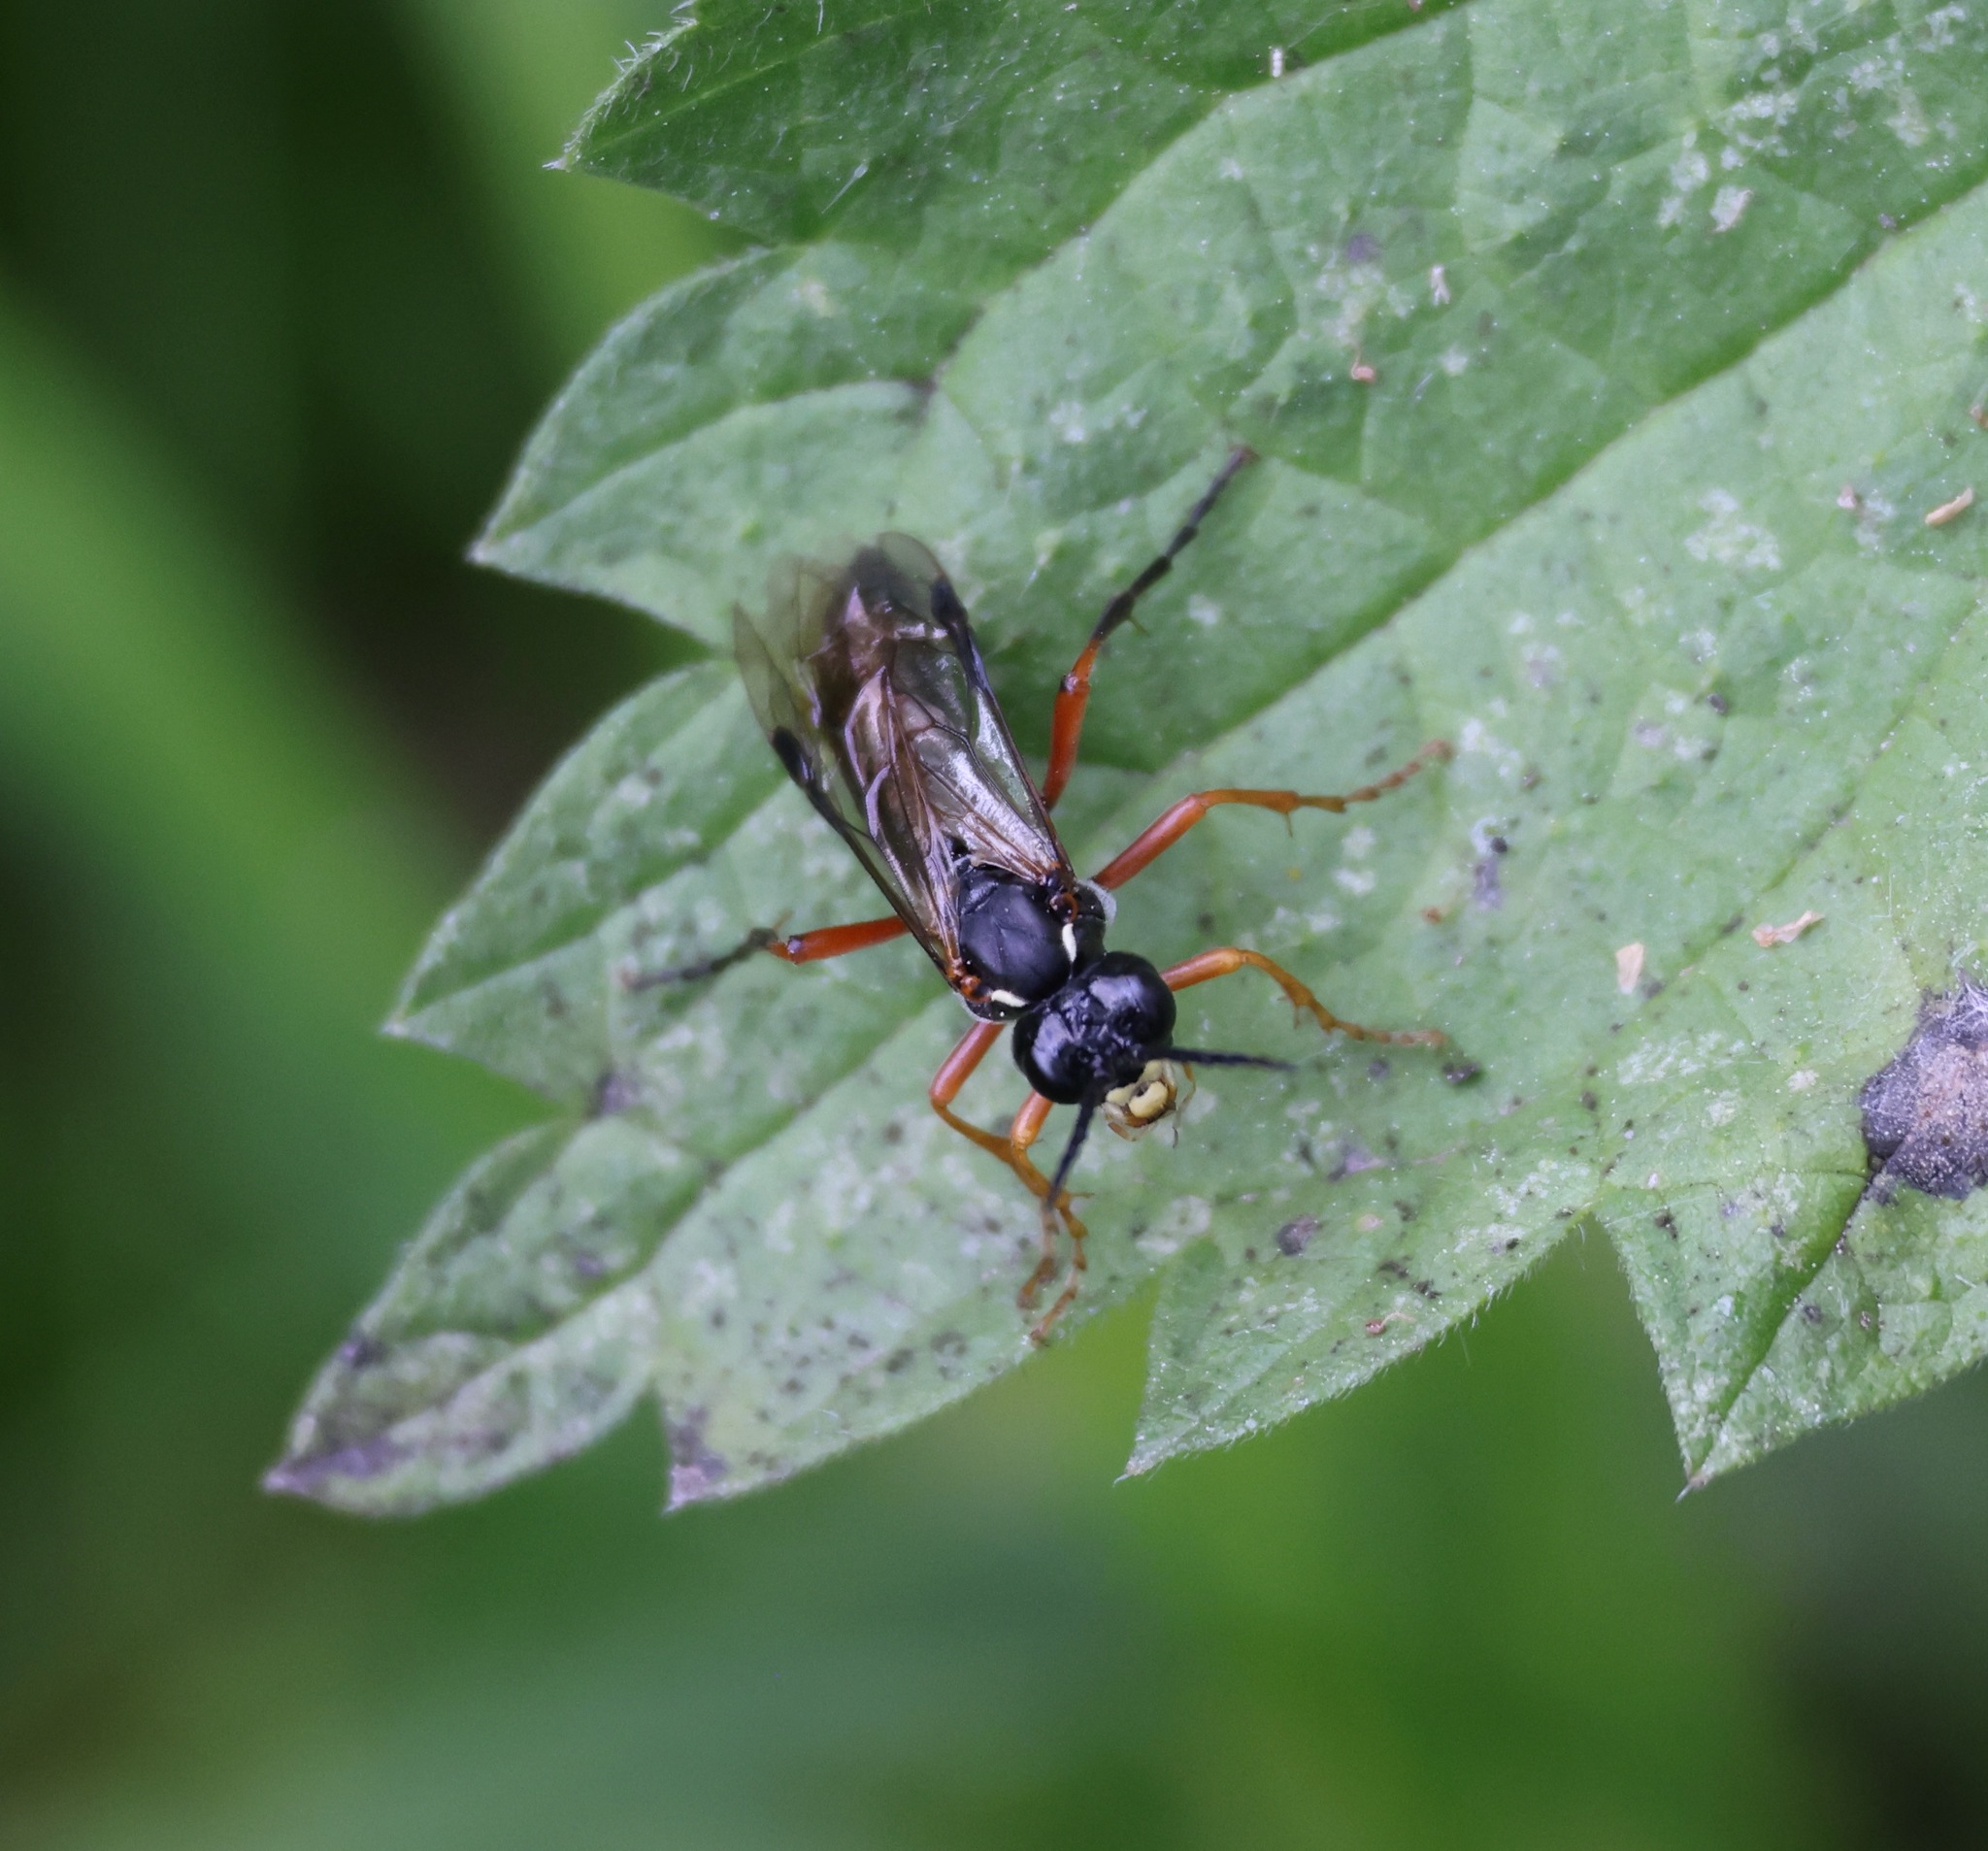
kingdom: Animalia
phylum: Arthropoda
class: Insecta
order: Hymenoptera
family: Tenthredinidae
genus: Tenthredo
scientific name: Tenthredo atra
